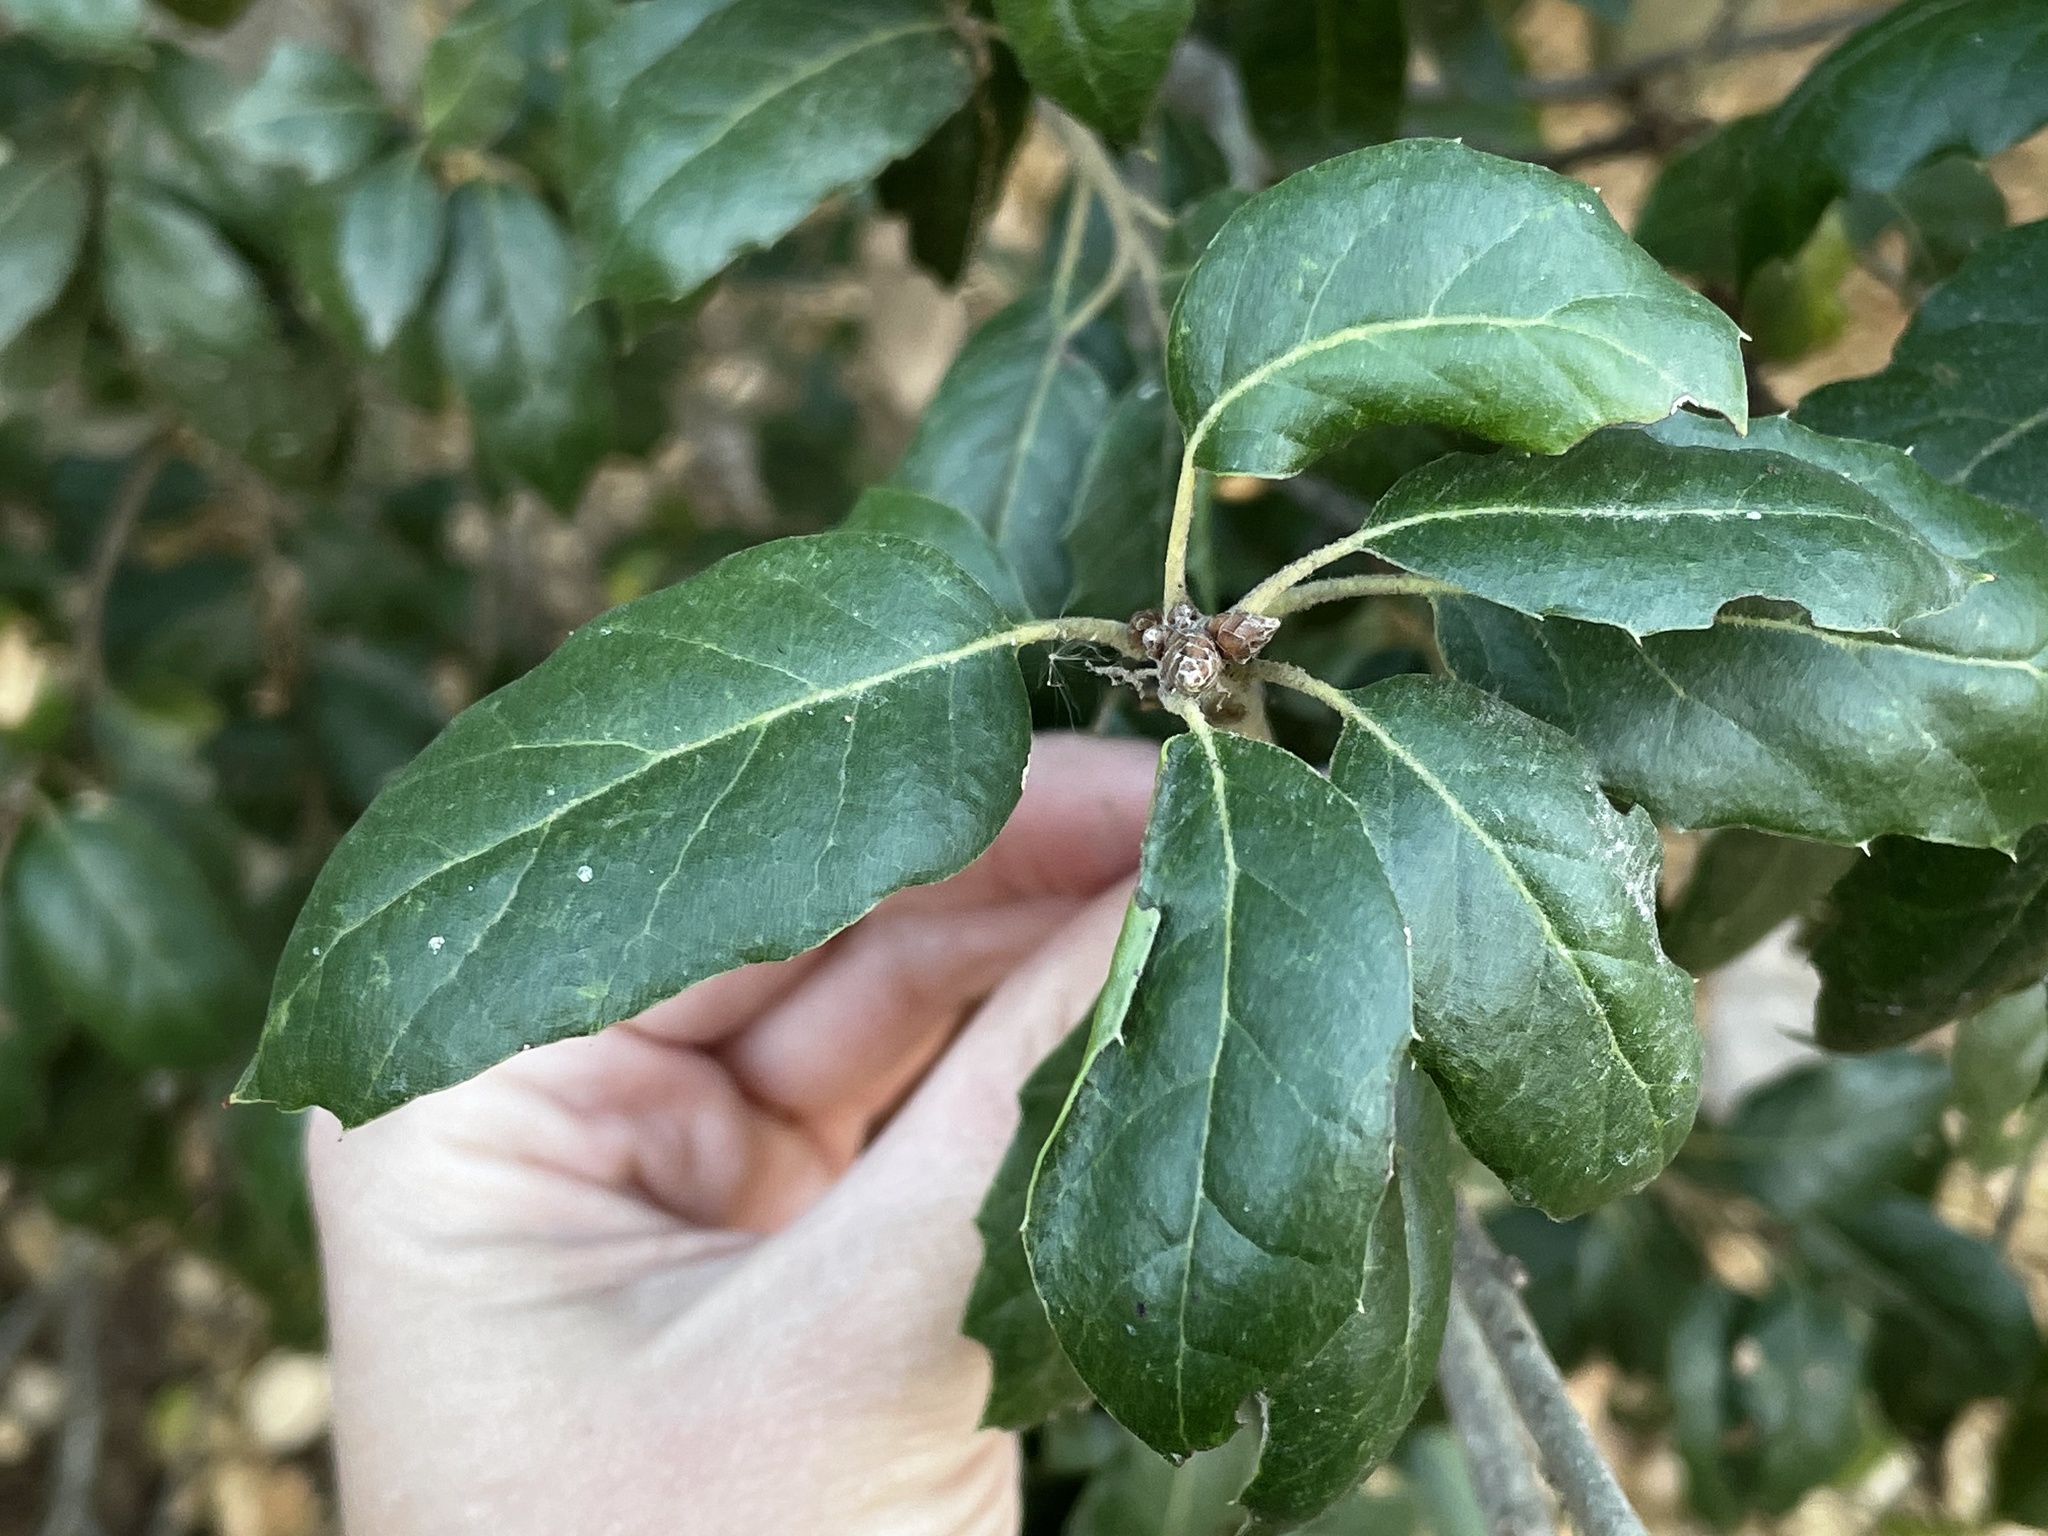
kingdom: Plantae
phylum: Tracheophyta
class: Magnoliopsida
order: Fagales
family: Fagaceae
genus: Quercus
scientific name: Quercus agrifolia
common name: California live oak
